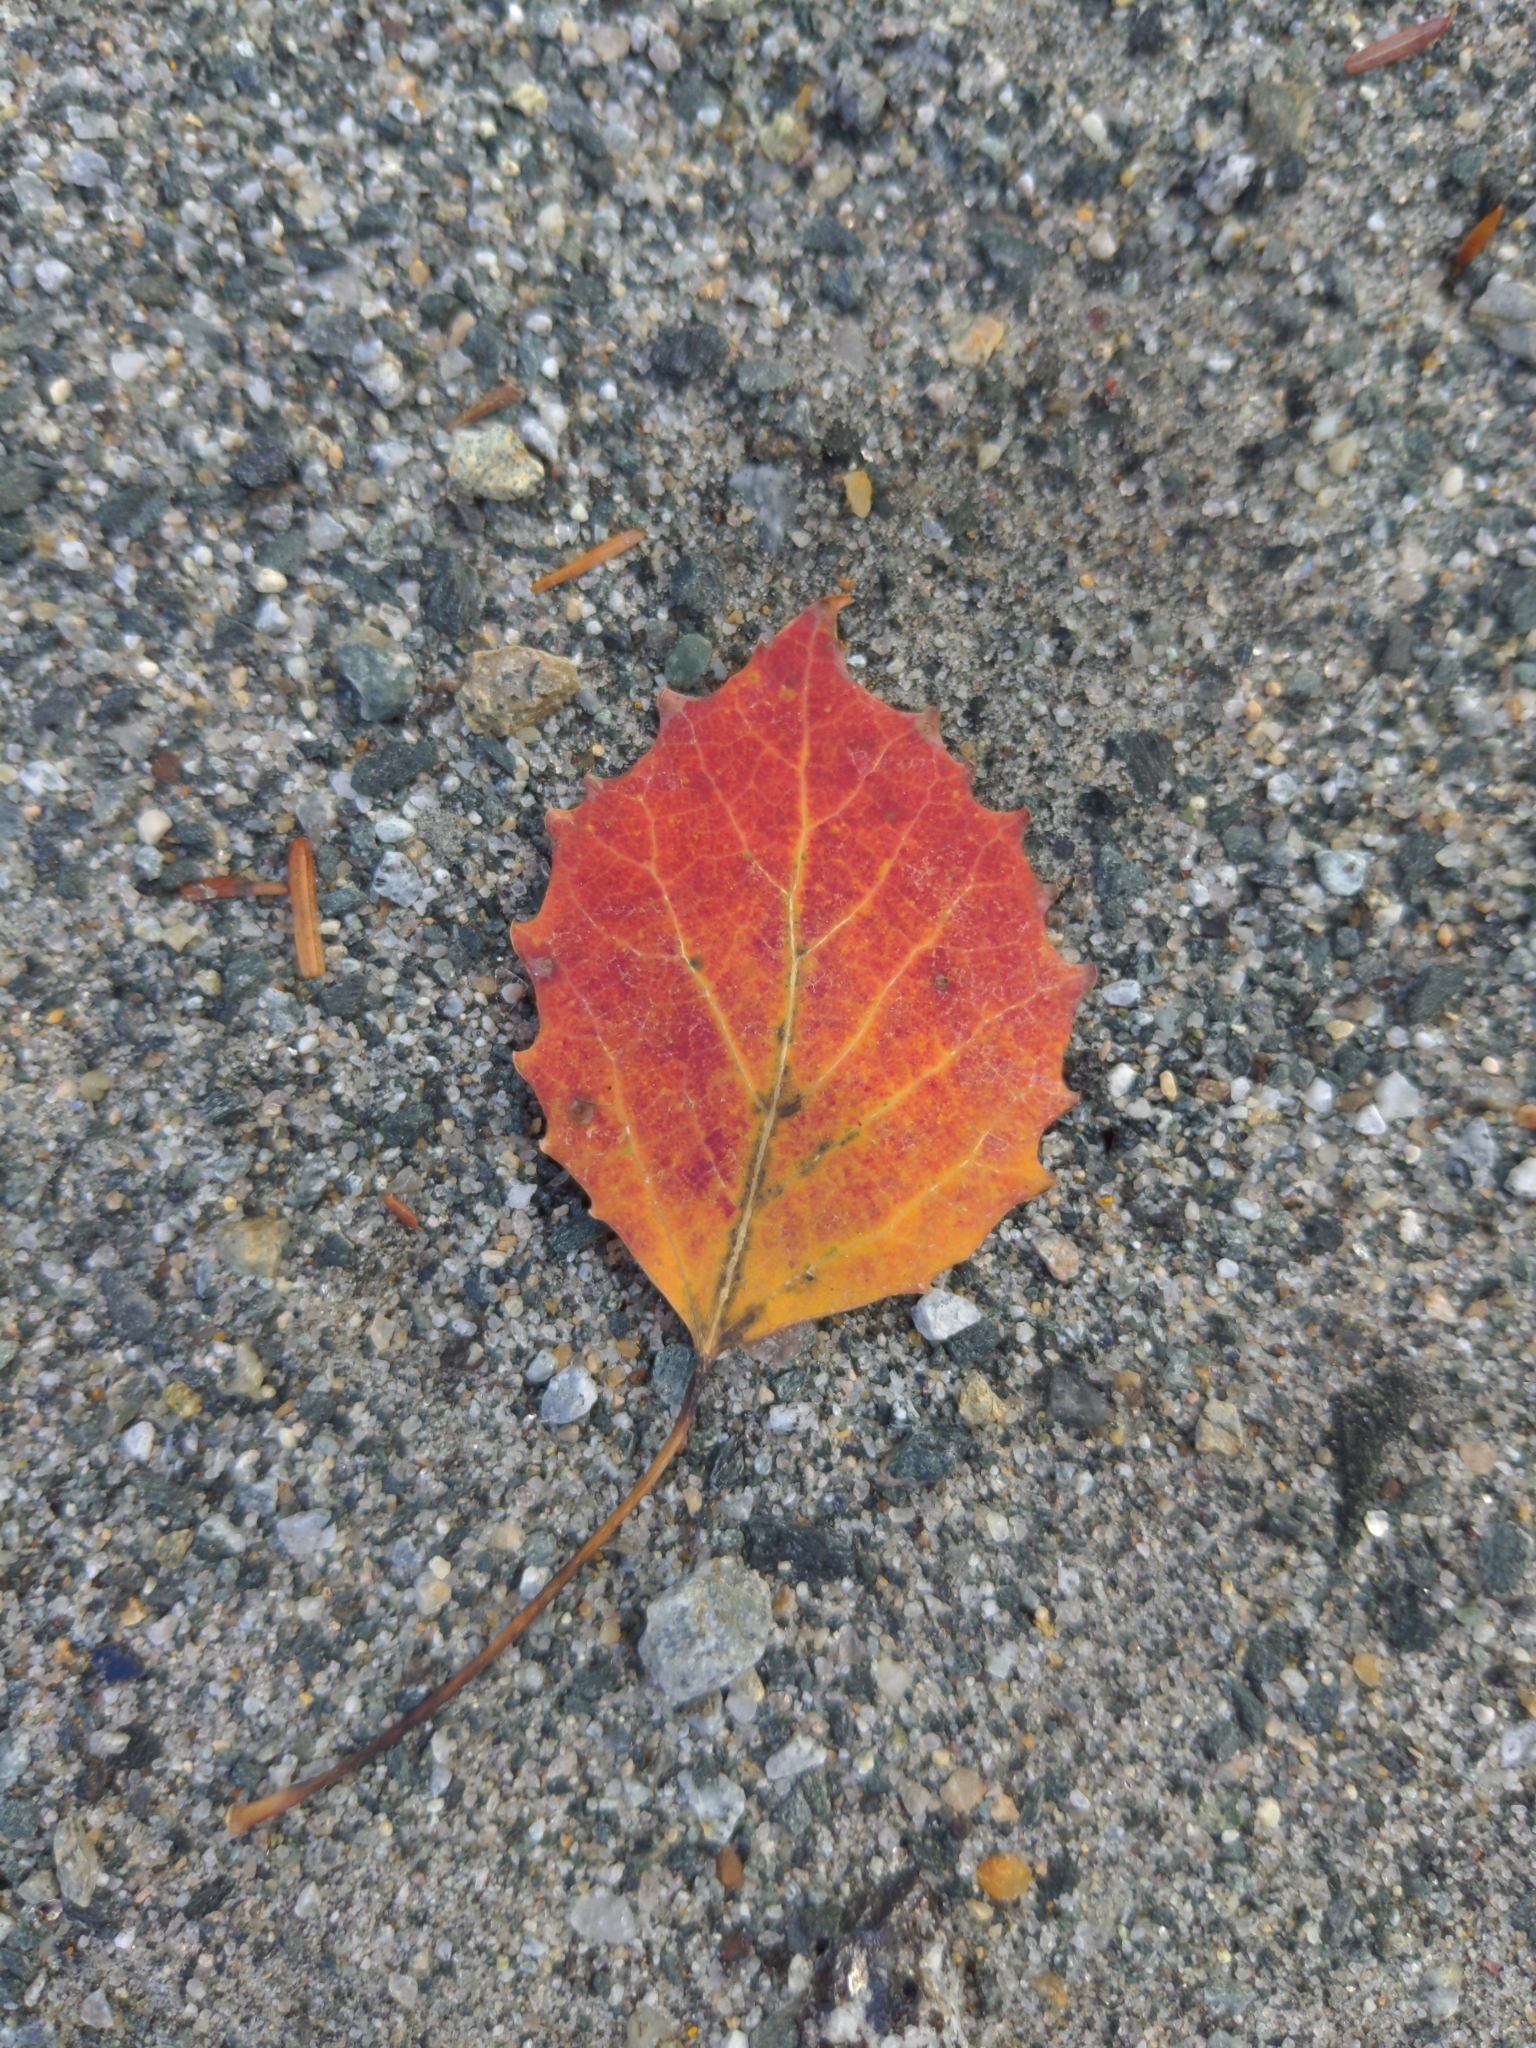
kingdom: Plantae
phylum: Tracheophyta
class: Magnoliopsida
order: Malpighiales
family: Salicaceae
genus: Populus
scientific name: Populus grandidentata
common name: Bigtooth aspen
